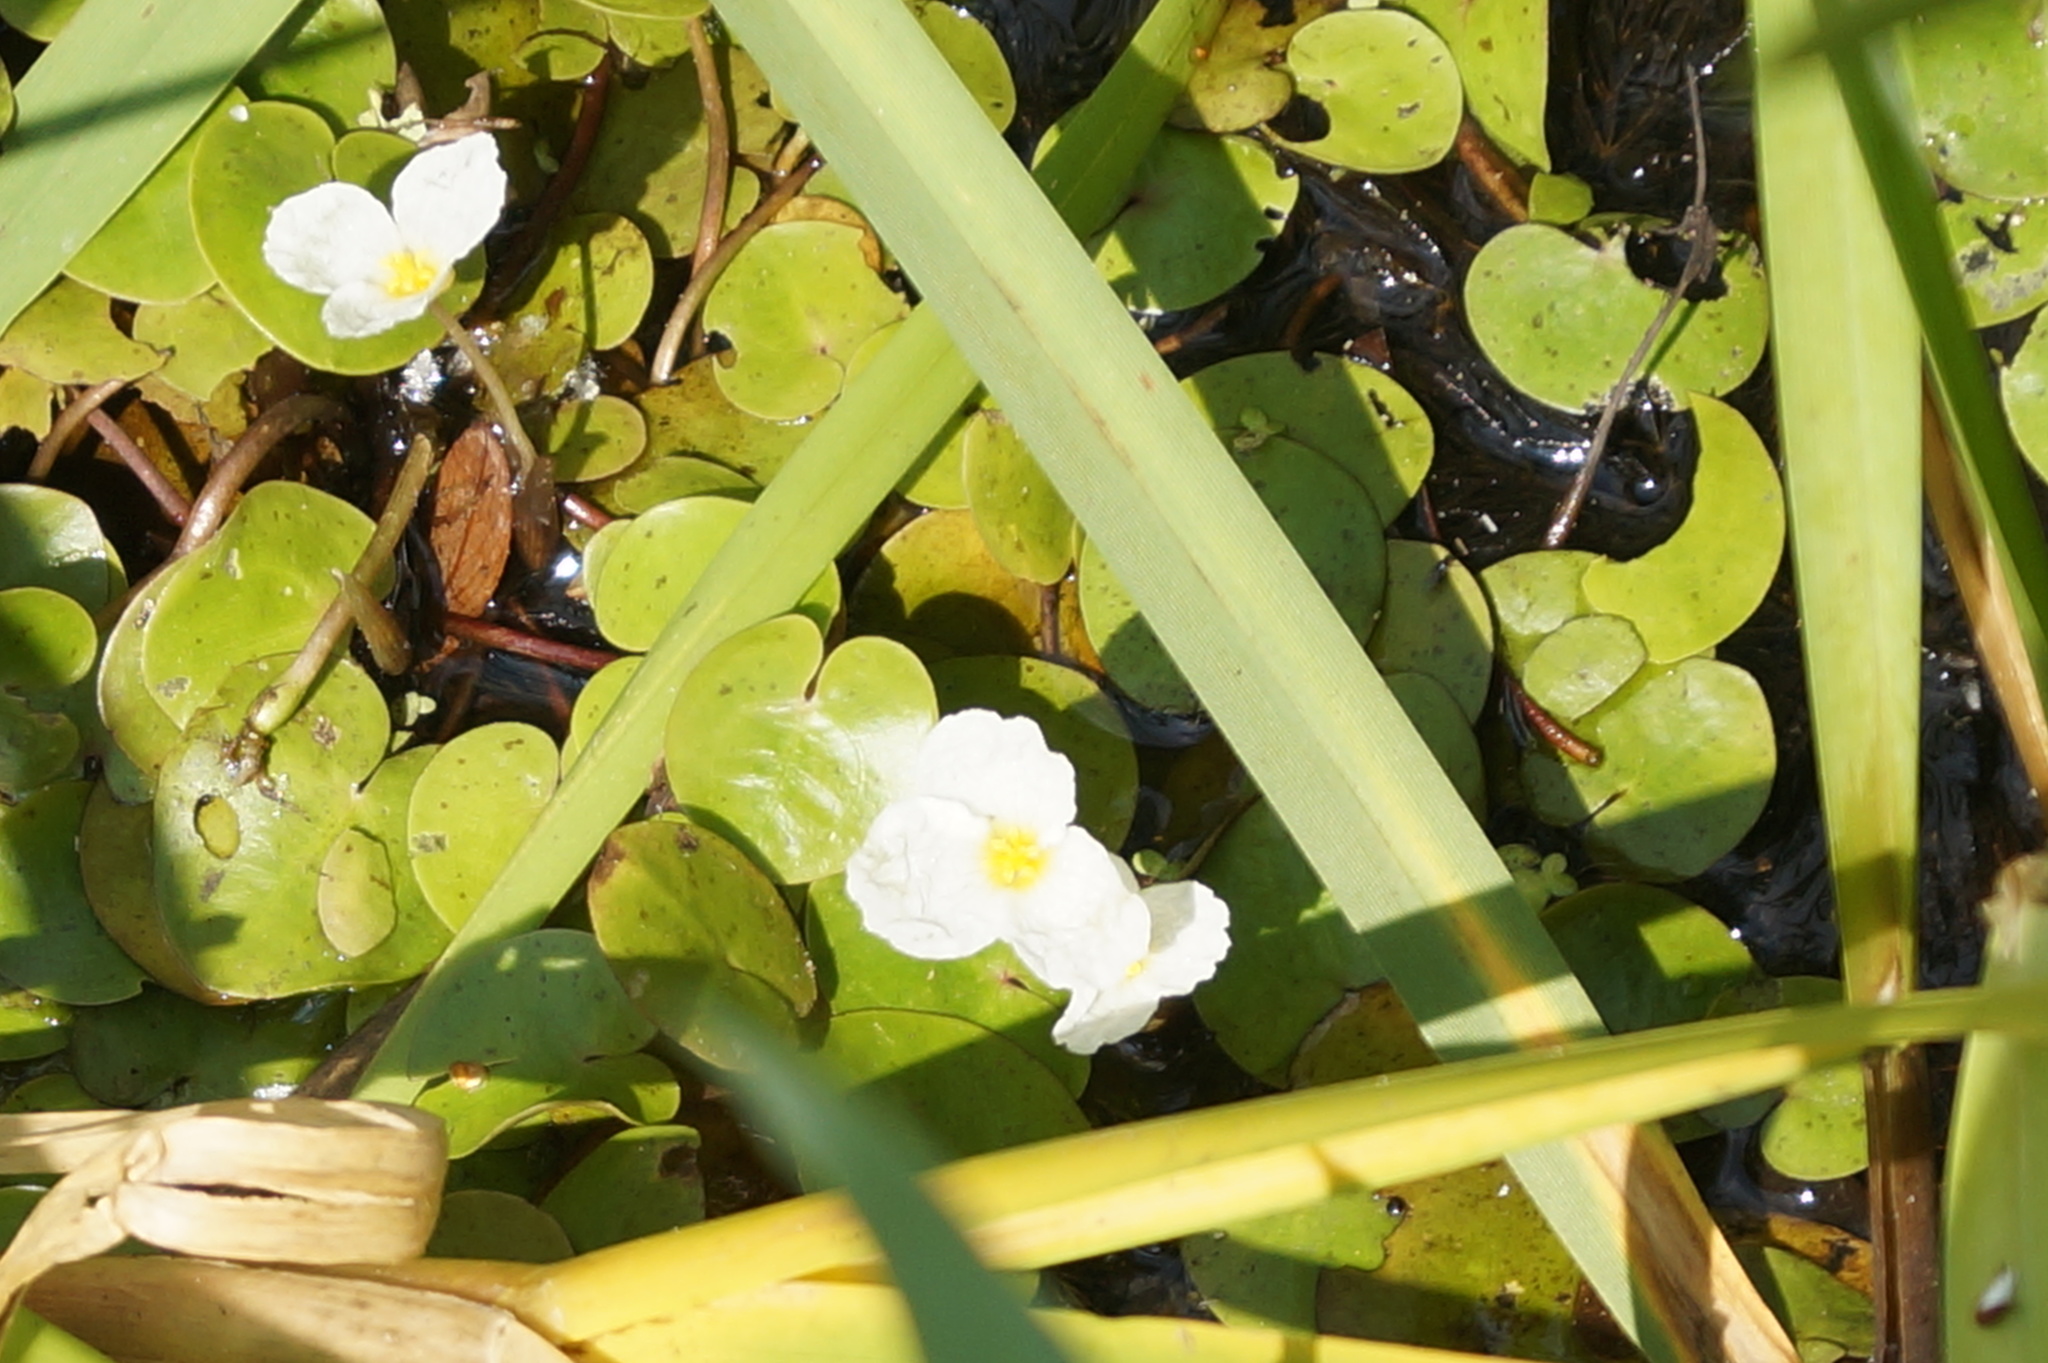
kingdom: Plantae
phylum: Tracheophyta
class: Liliopsida
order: Alismatales
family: Hydrocharitaceae
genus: Hydrocharis
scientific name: Hydrocharis morsus-ranae
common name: Frogbit
